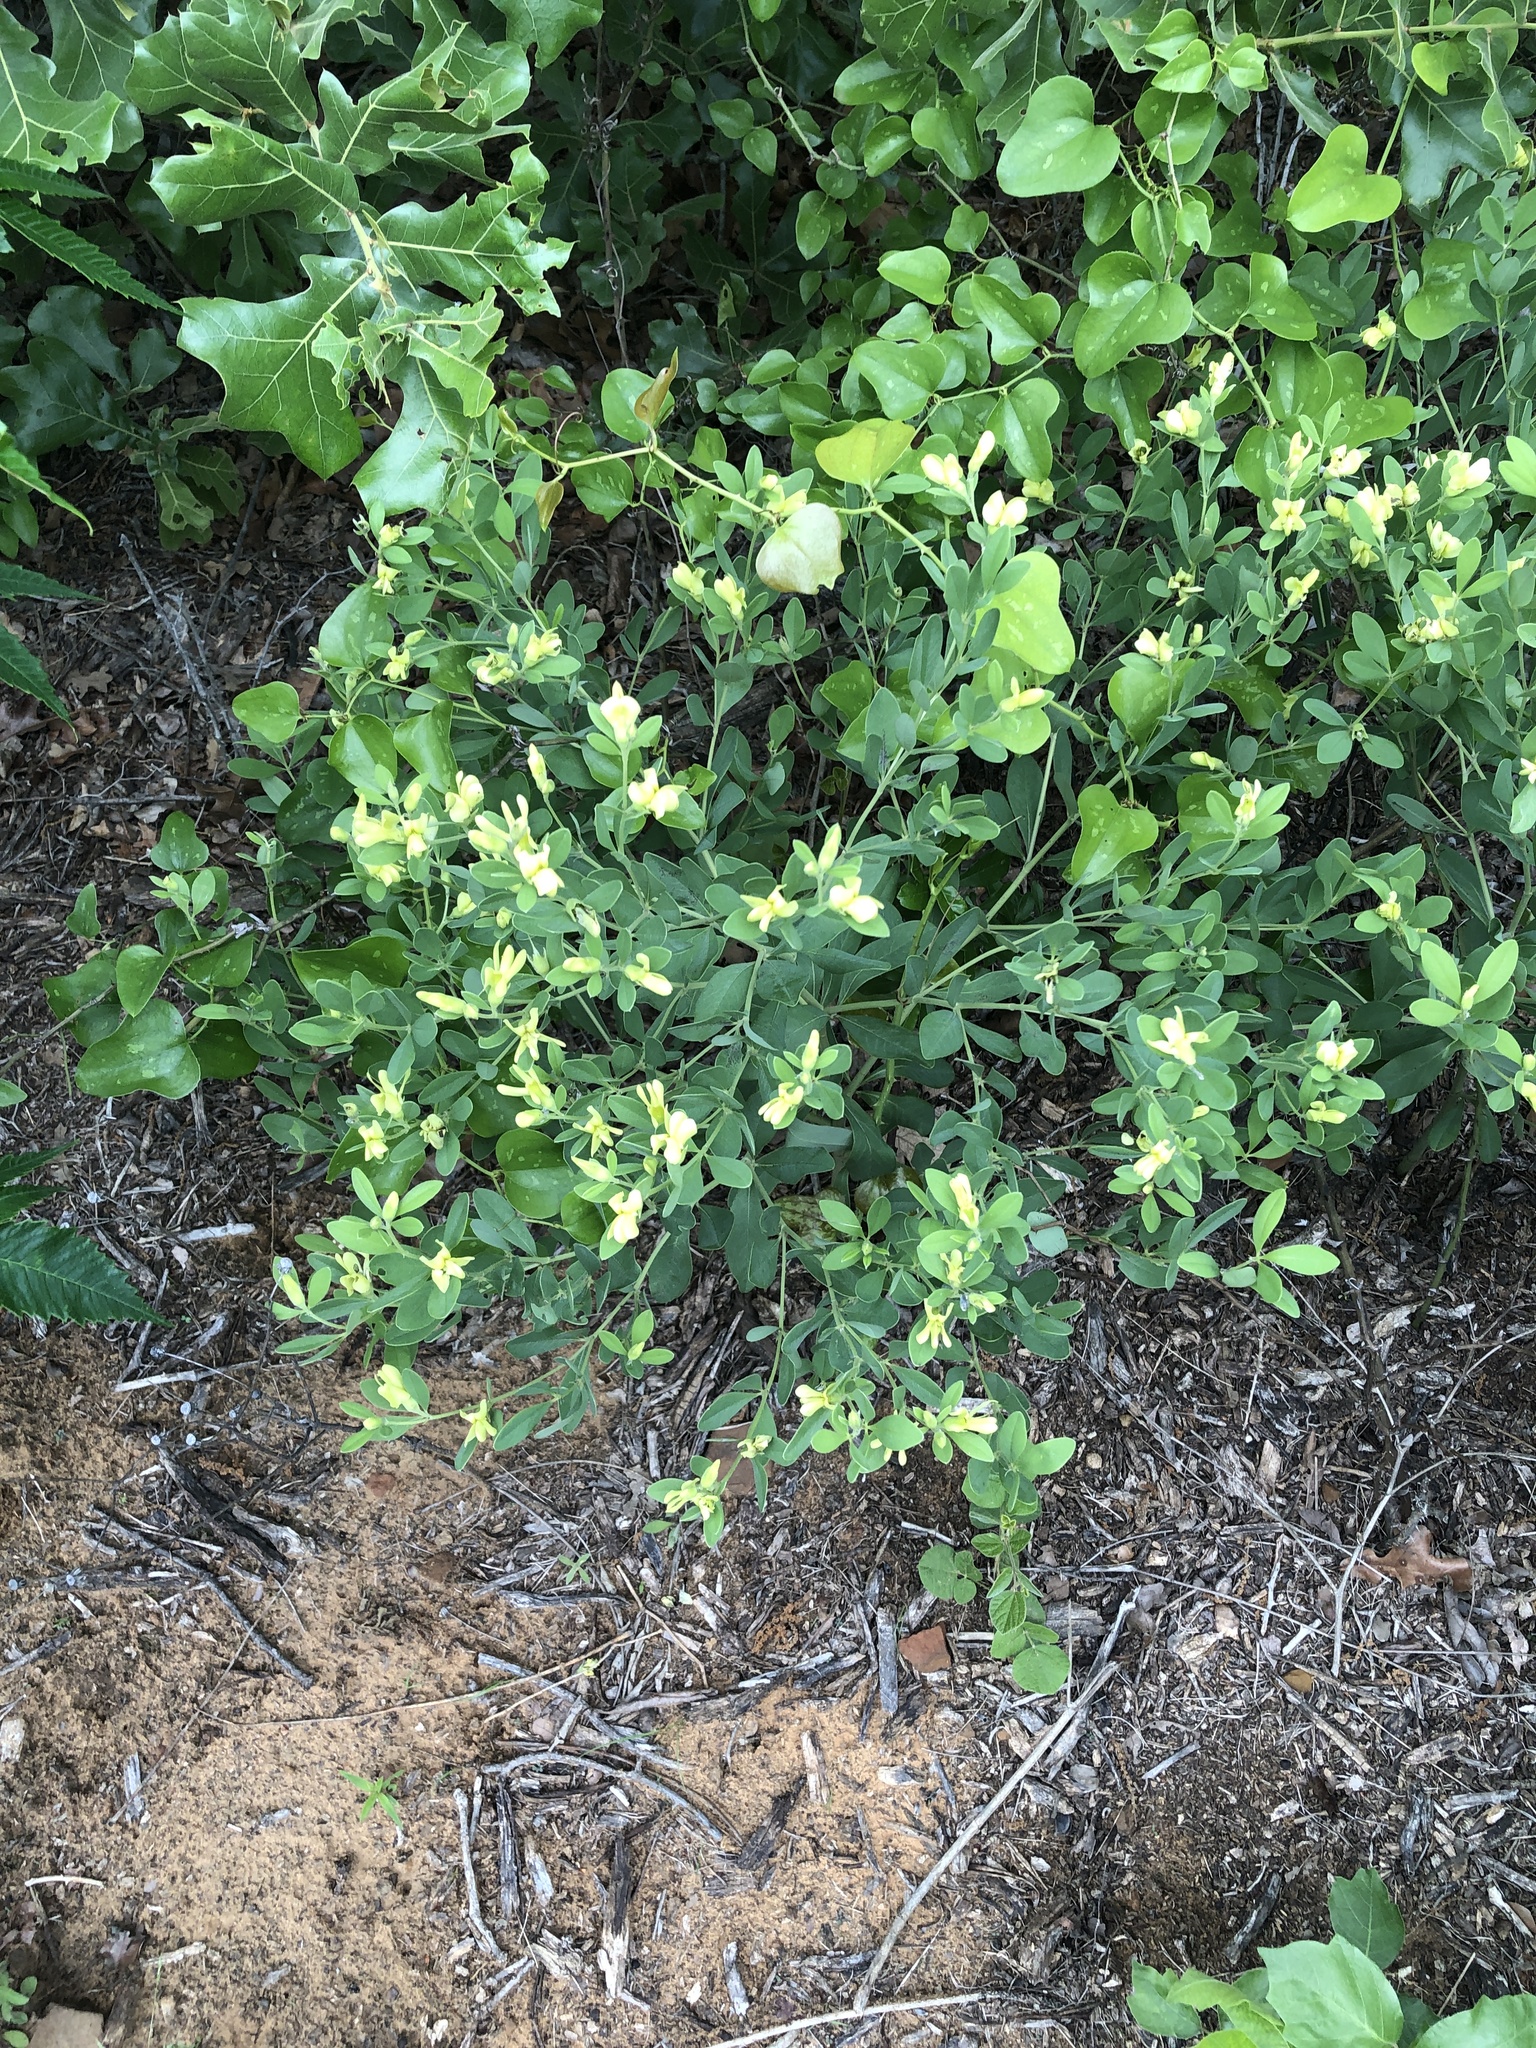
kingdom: Plantae
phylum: Tracheophyta
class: Magnoliopsida
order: Fabales
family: Fabaceae
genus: Baptisia
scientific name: Baptisia nuttalliana
